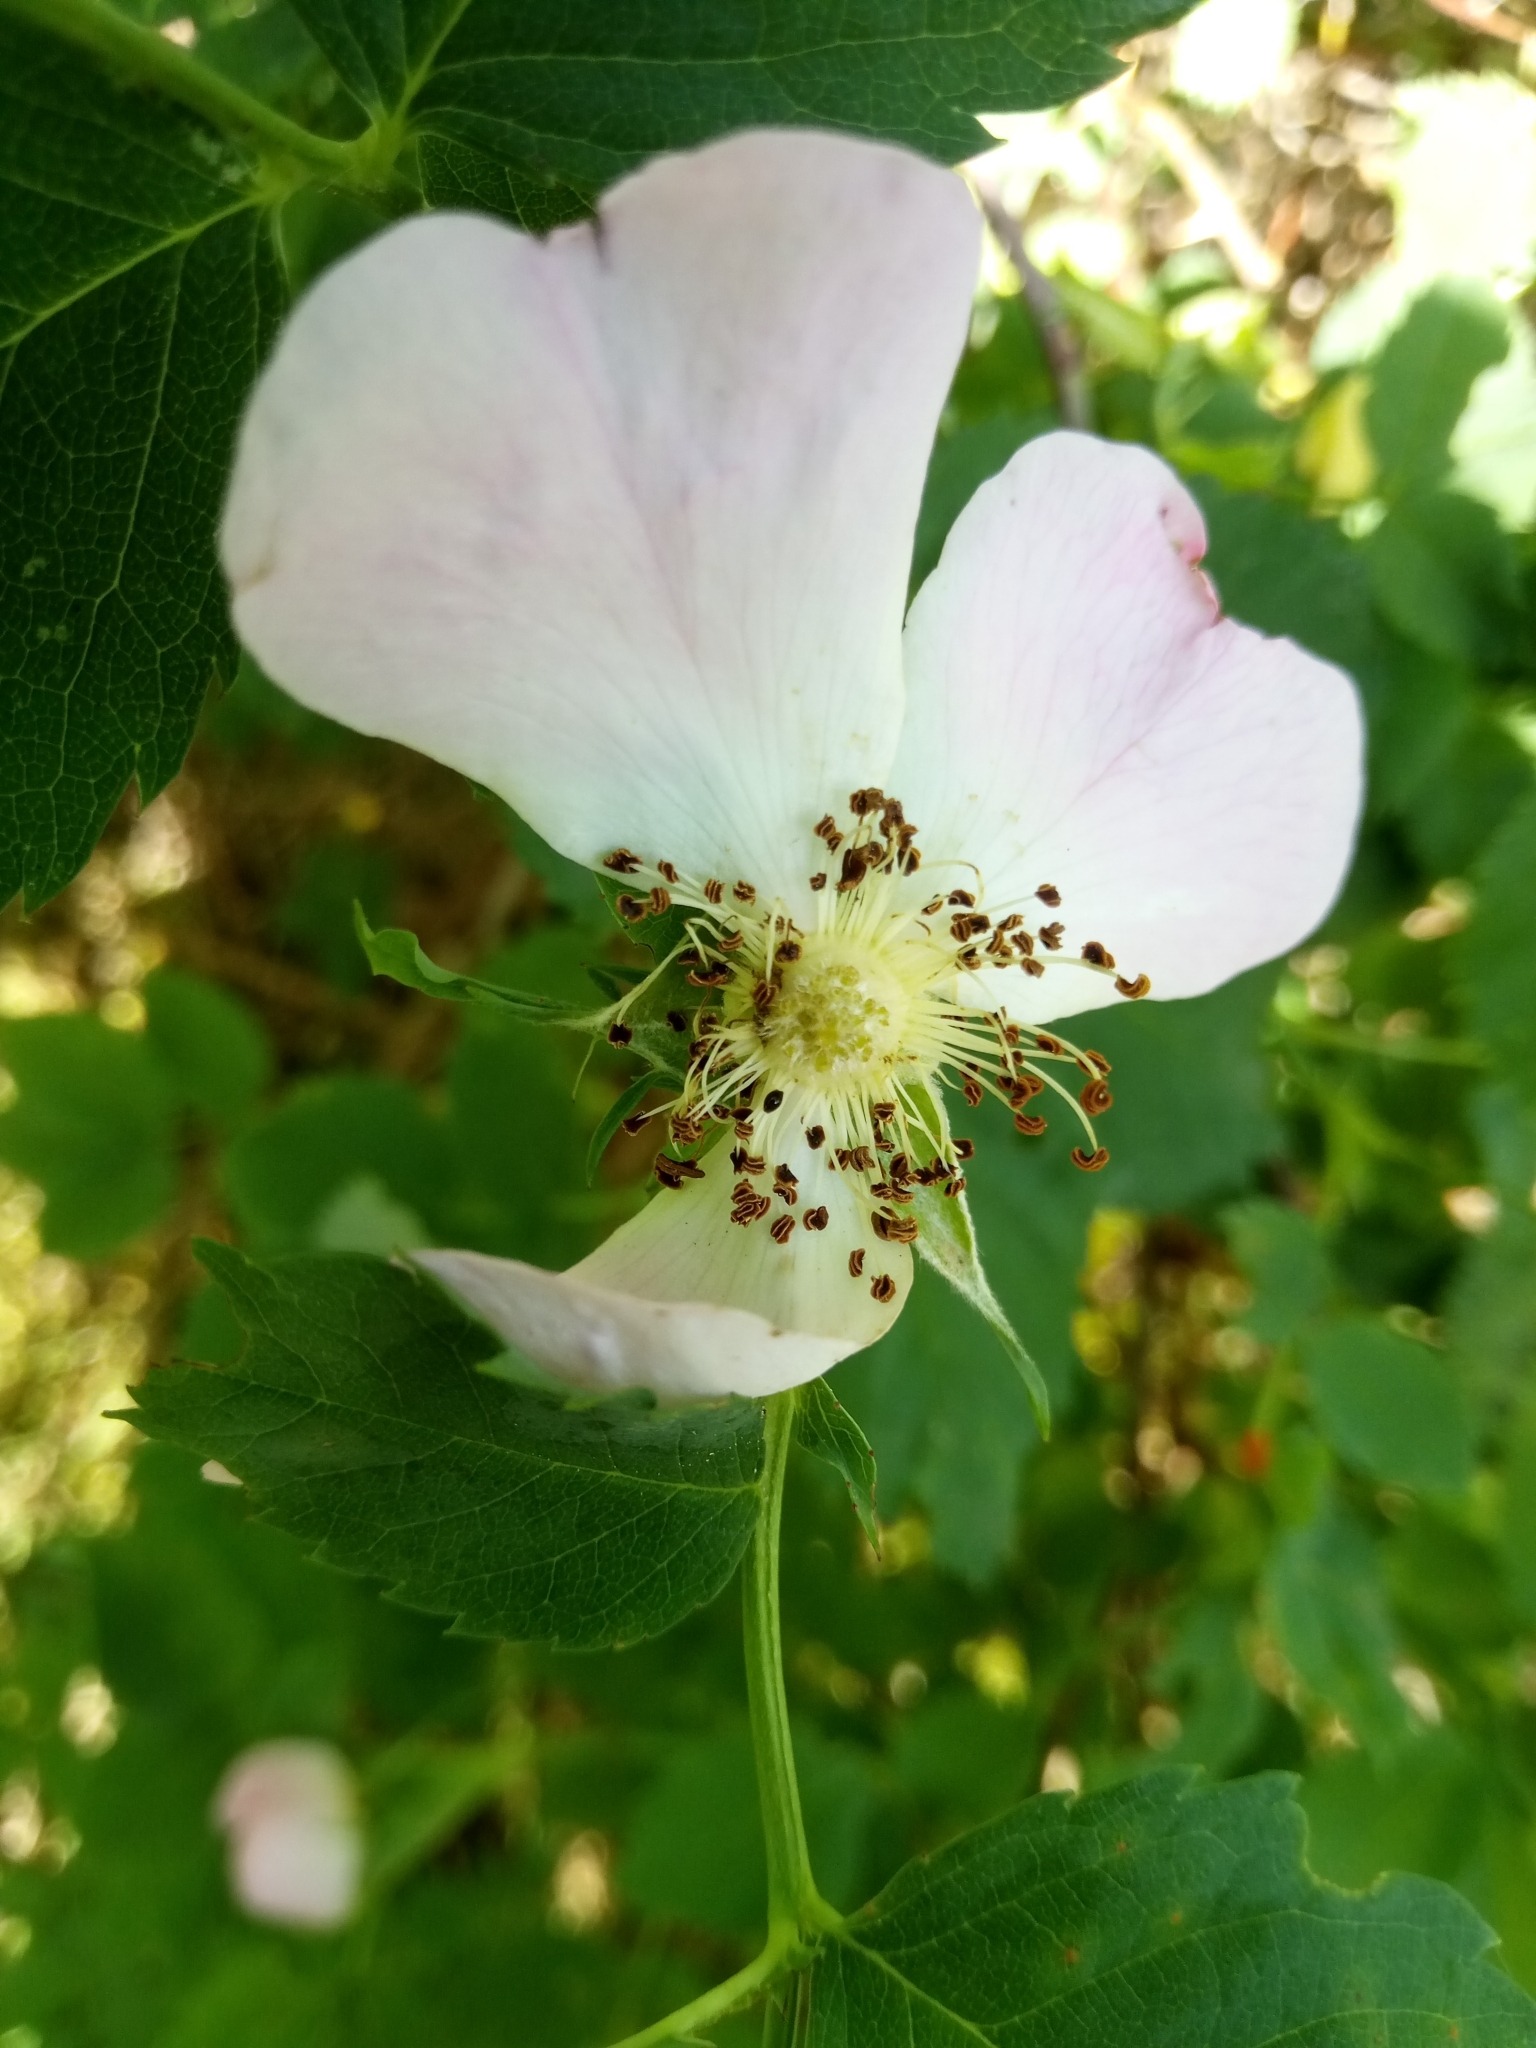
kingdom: Plantae
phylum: Tracheophyta
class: Magnoliopsida
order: Rosales
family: Rosaceae
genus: Rosa
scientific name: Rosa dumalis
